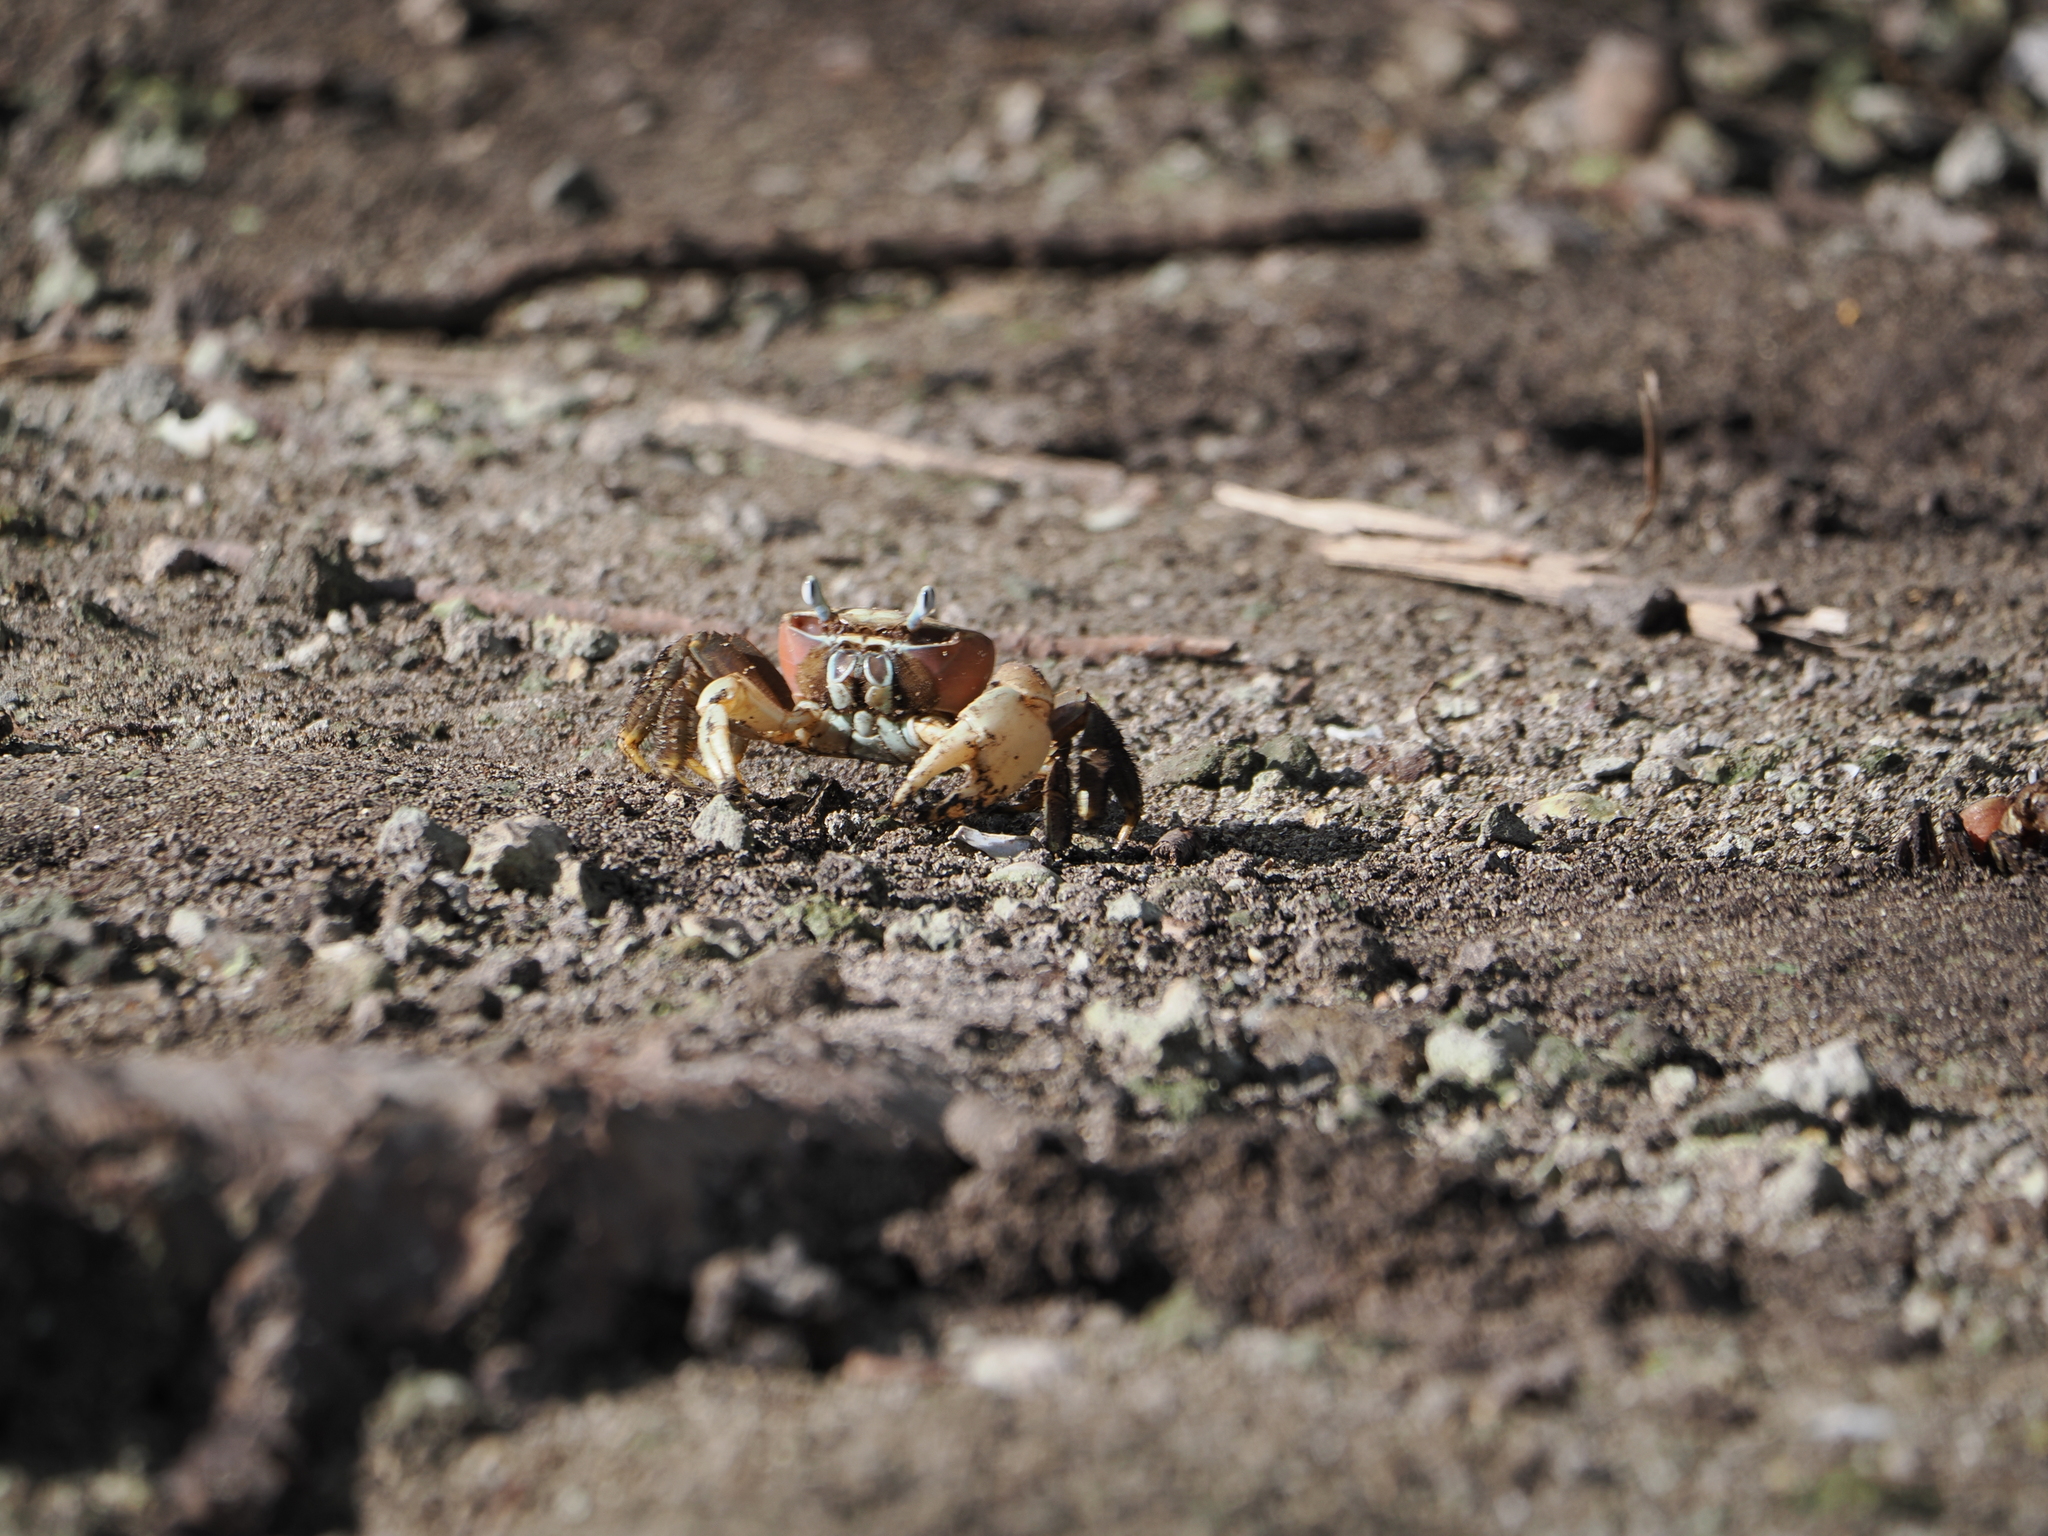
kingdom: Animalia
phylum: Arthropoda
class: Malacostraca
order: Decapoda
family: Gecarcinidae
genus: Cardisoma
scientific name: Cardisoma carnifex
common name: Brown land crab
